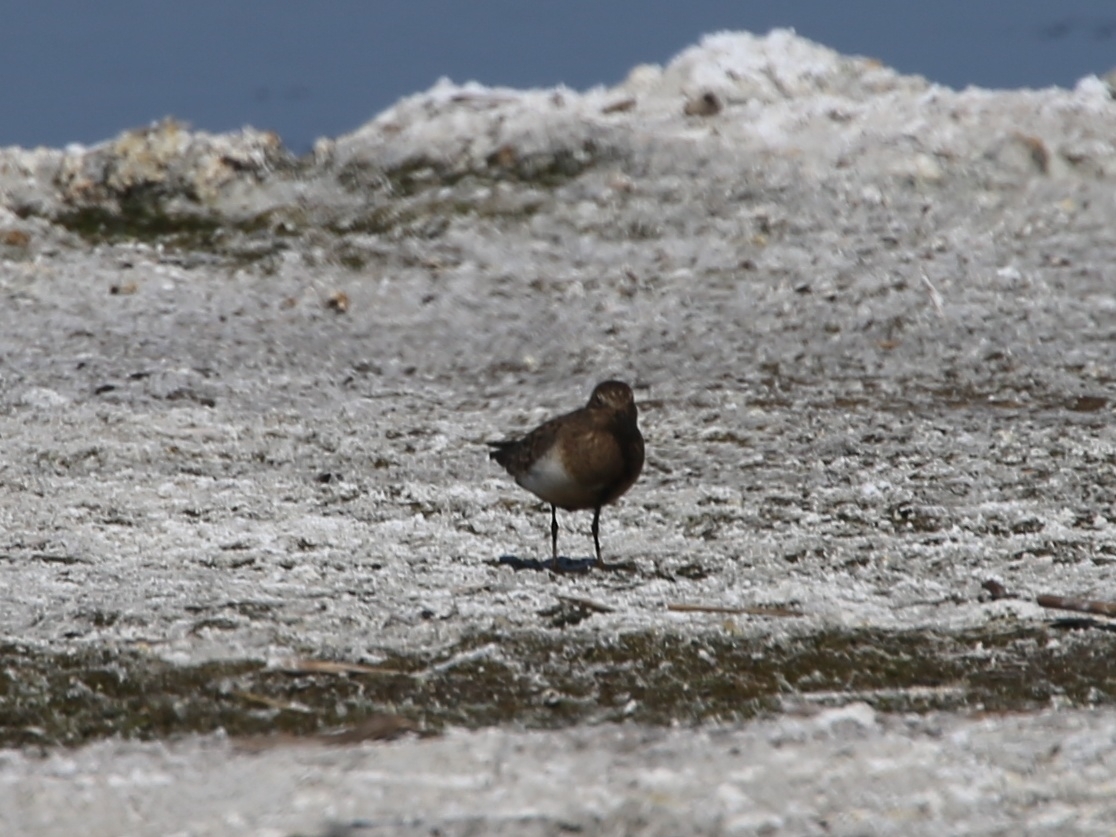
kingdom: Animalia
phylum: Chordata
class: Aves
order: Charadriiformes
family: Scolopacidae
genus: Calidris
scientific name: Calidris temminckii
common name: Temminck's stint
